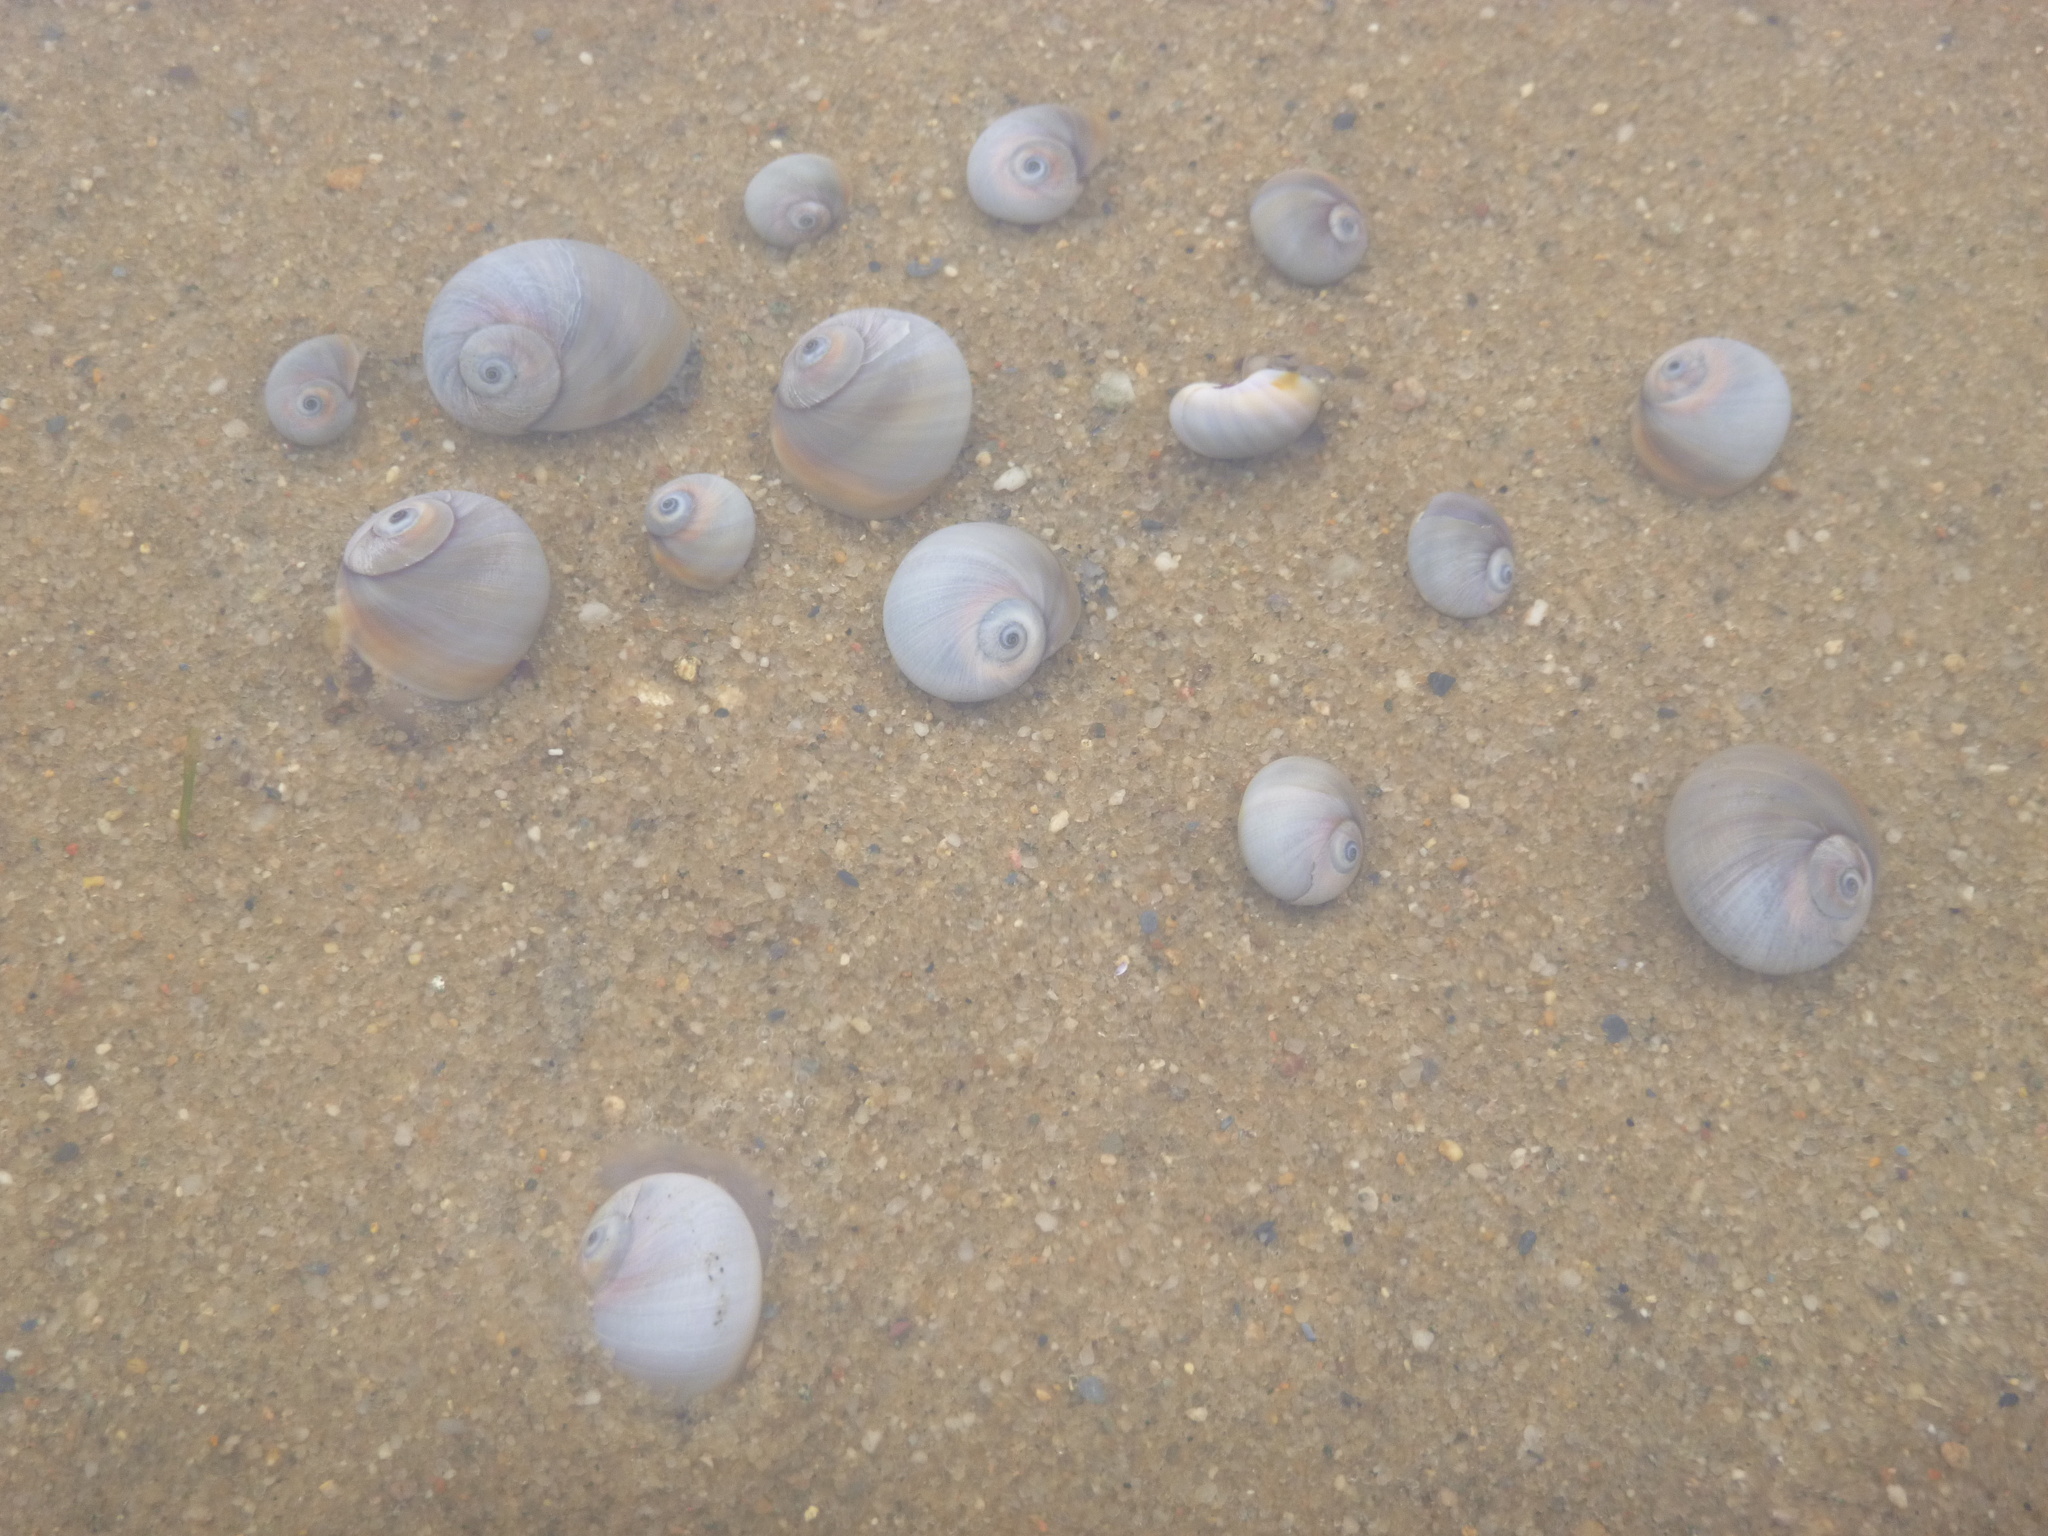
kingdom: Animalia
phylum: Mollusca
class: Gastropoda
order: Littorinimorpha
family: Naticidae
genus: Neverita
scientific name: Neverita duplicata
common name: Lobed moonsnail
